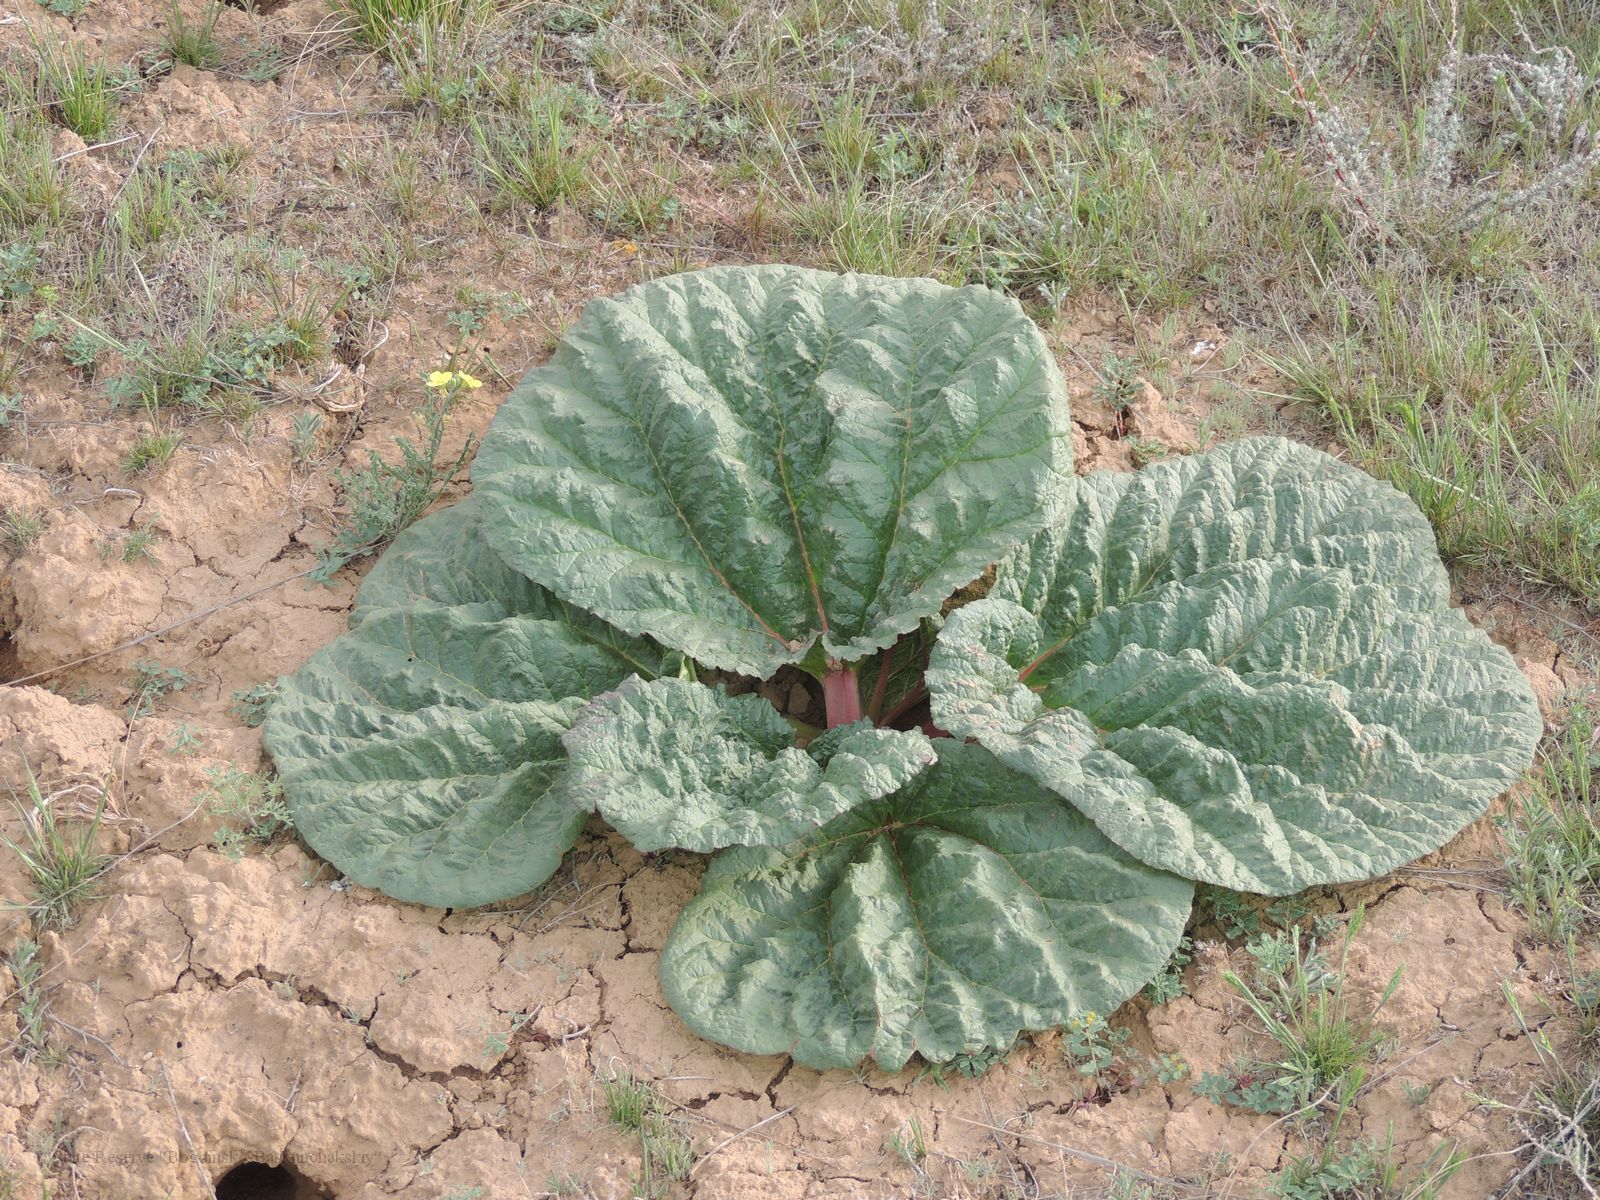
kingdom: Plantae
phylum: Tracheophyta
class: Magnoliopsida
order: Caryophyllales
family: Polygonaceae
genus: Rheum
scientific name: Rheum tataricum
